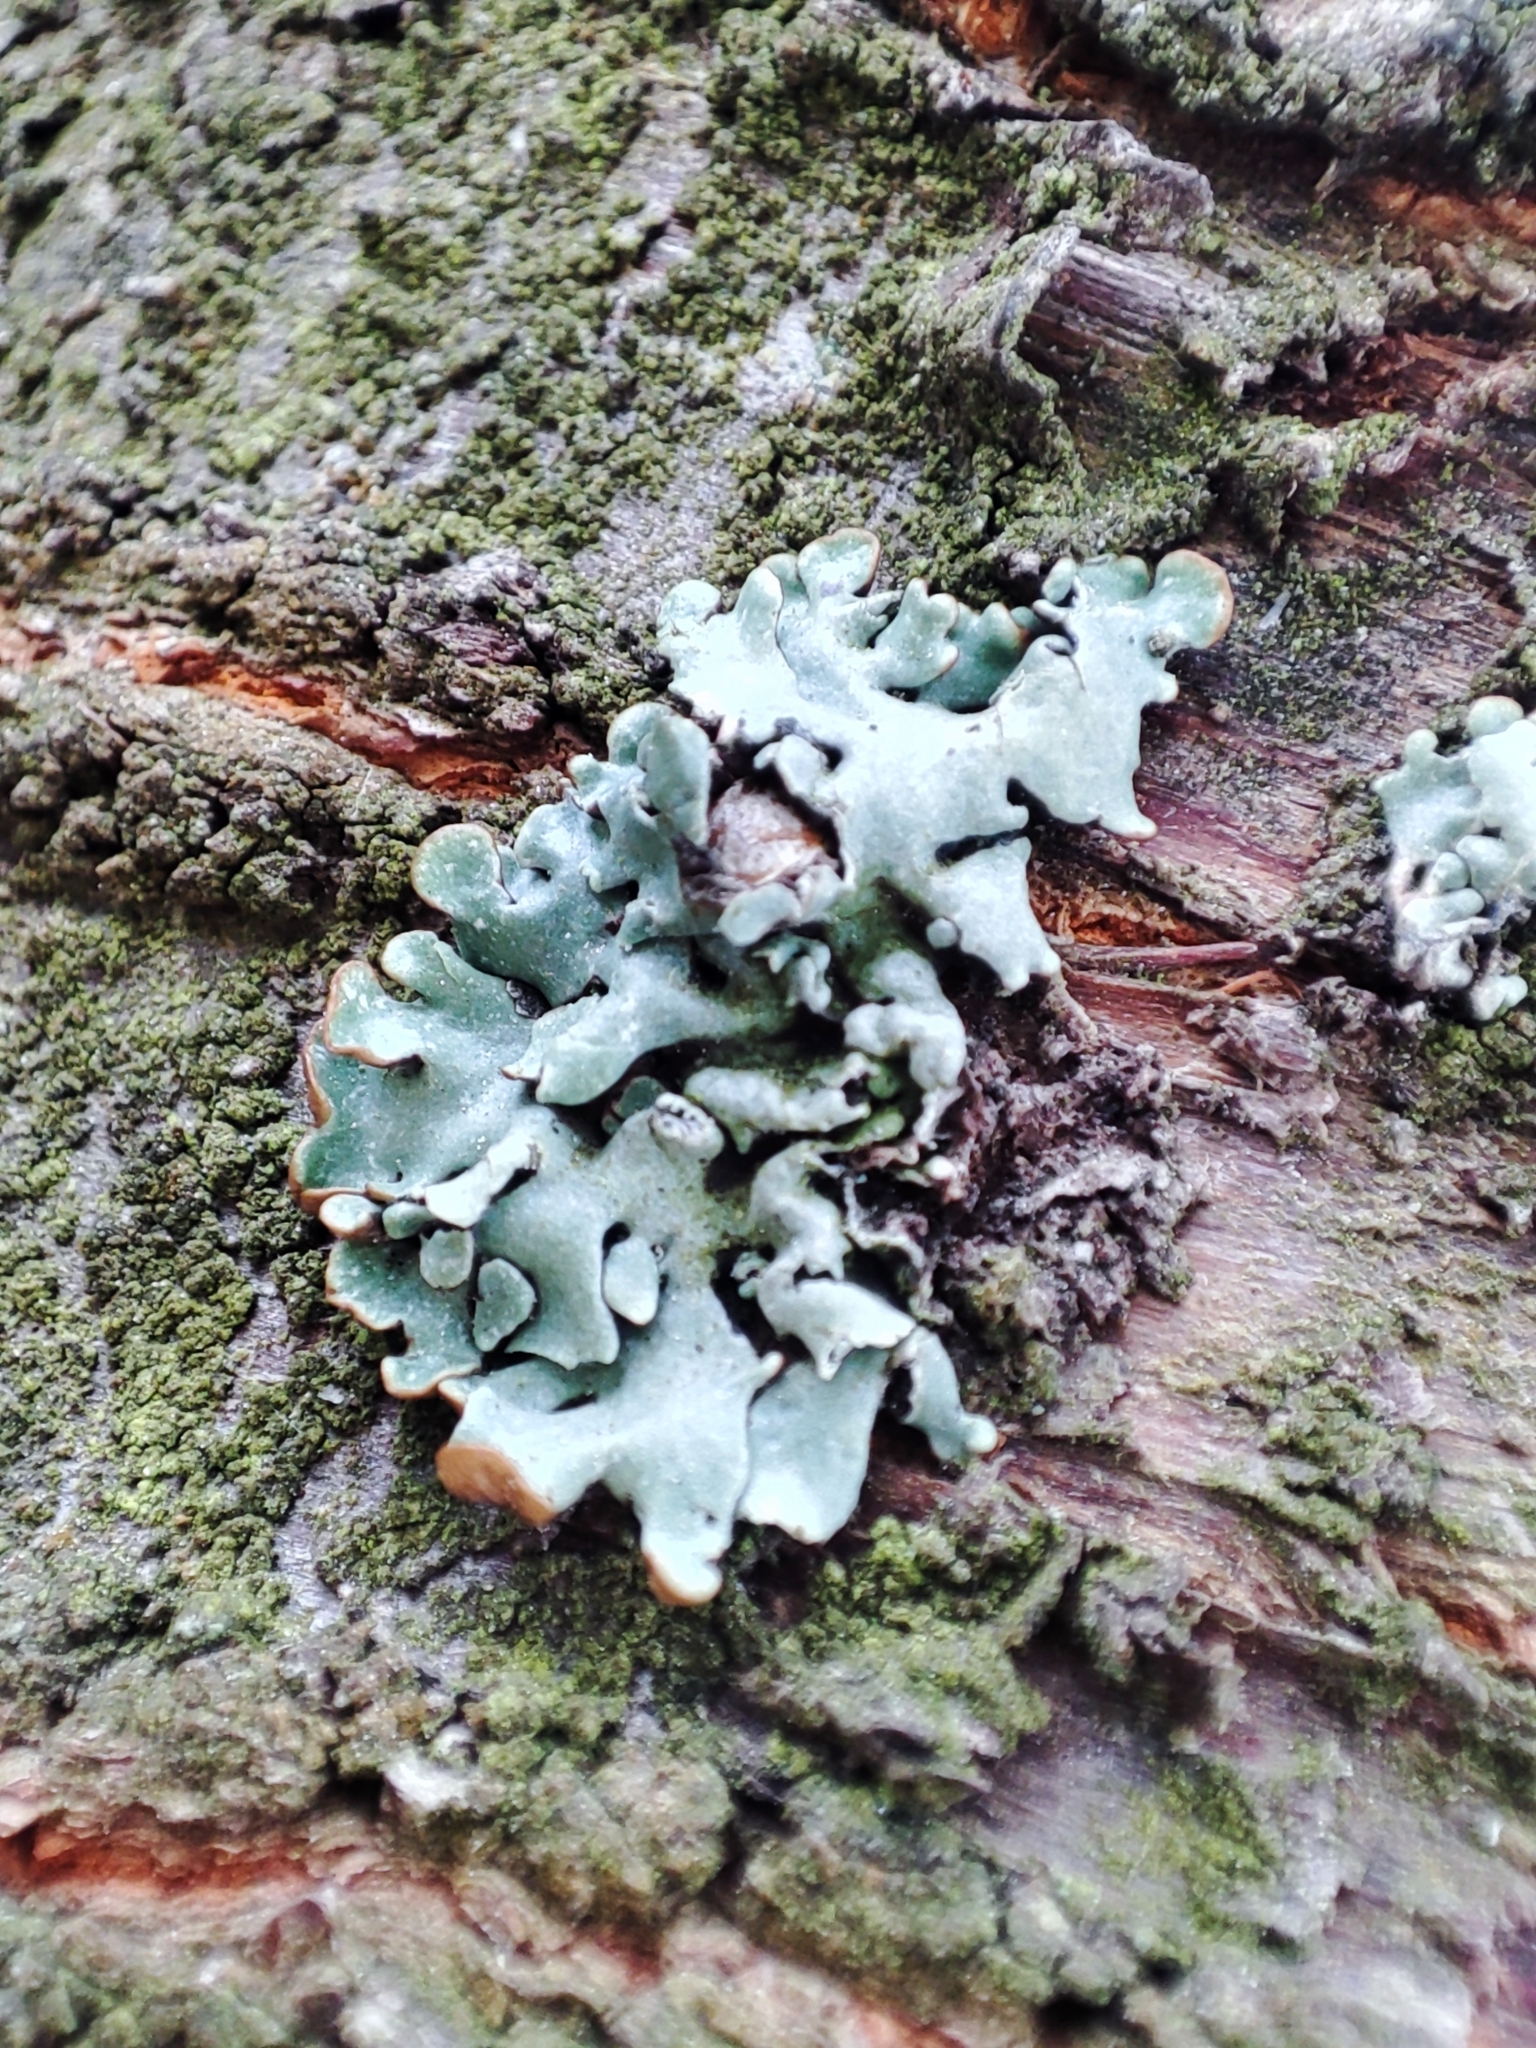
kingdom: Fungi
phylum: Ascomycota
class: Lecanoromycetes
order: Lecanorales
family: Parmeliaceae
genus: Hypogymnia
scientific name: Hypogymnia physodes
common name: Dark crottle
